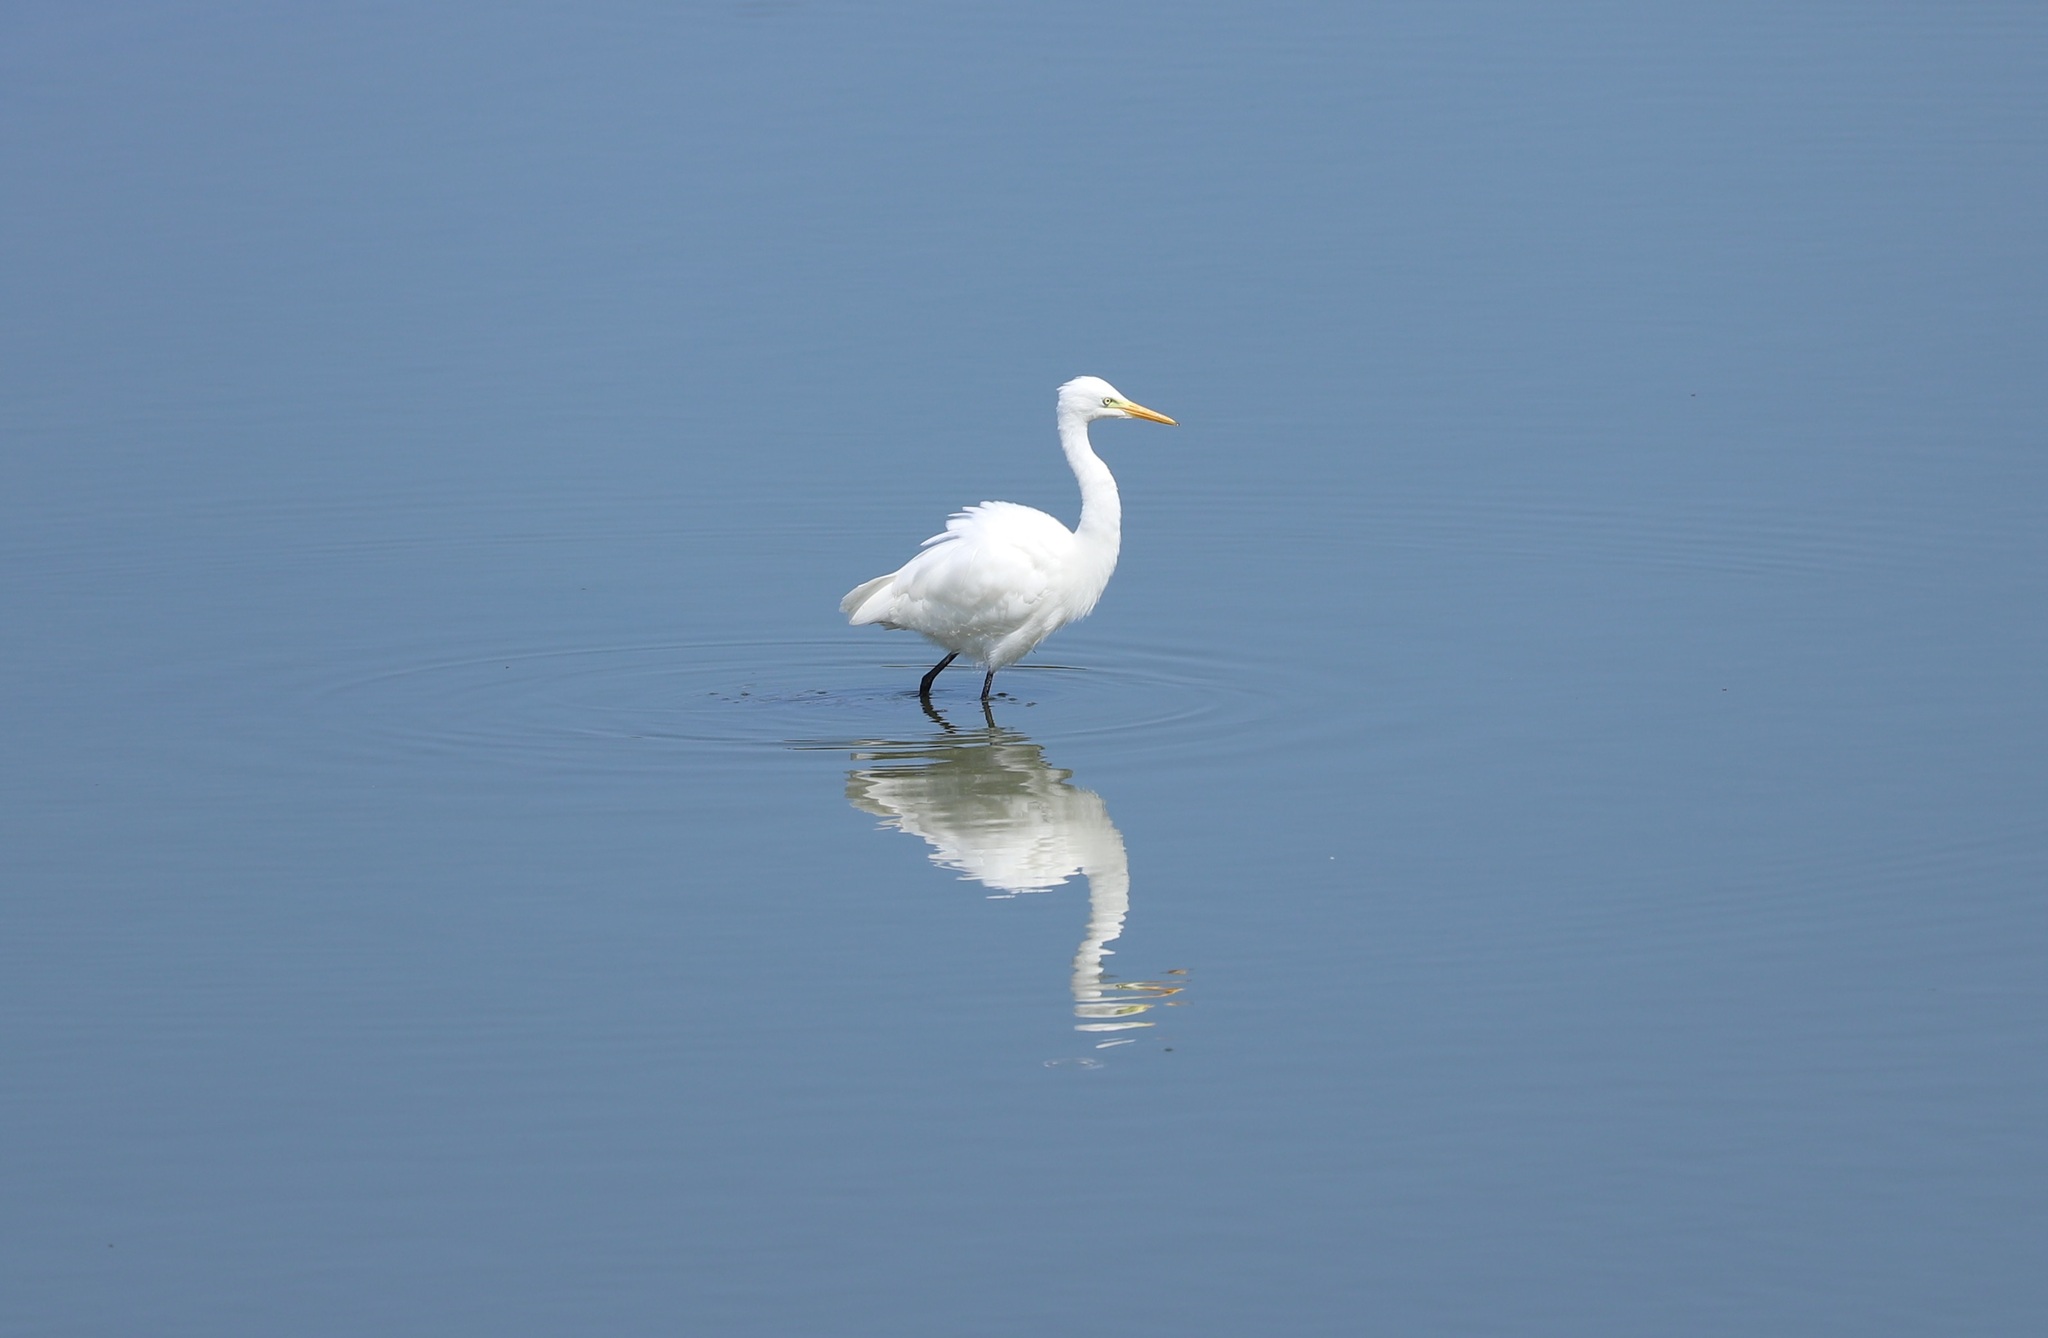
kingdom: Animalia
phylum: Chordata
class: Aves
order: Pelecaniformes
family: Ardeidae
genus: Egretta
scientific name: Egretta intermedia
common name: Intermediate egret
